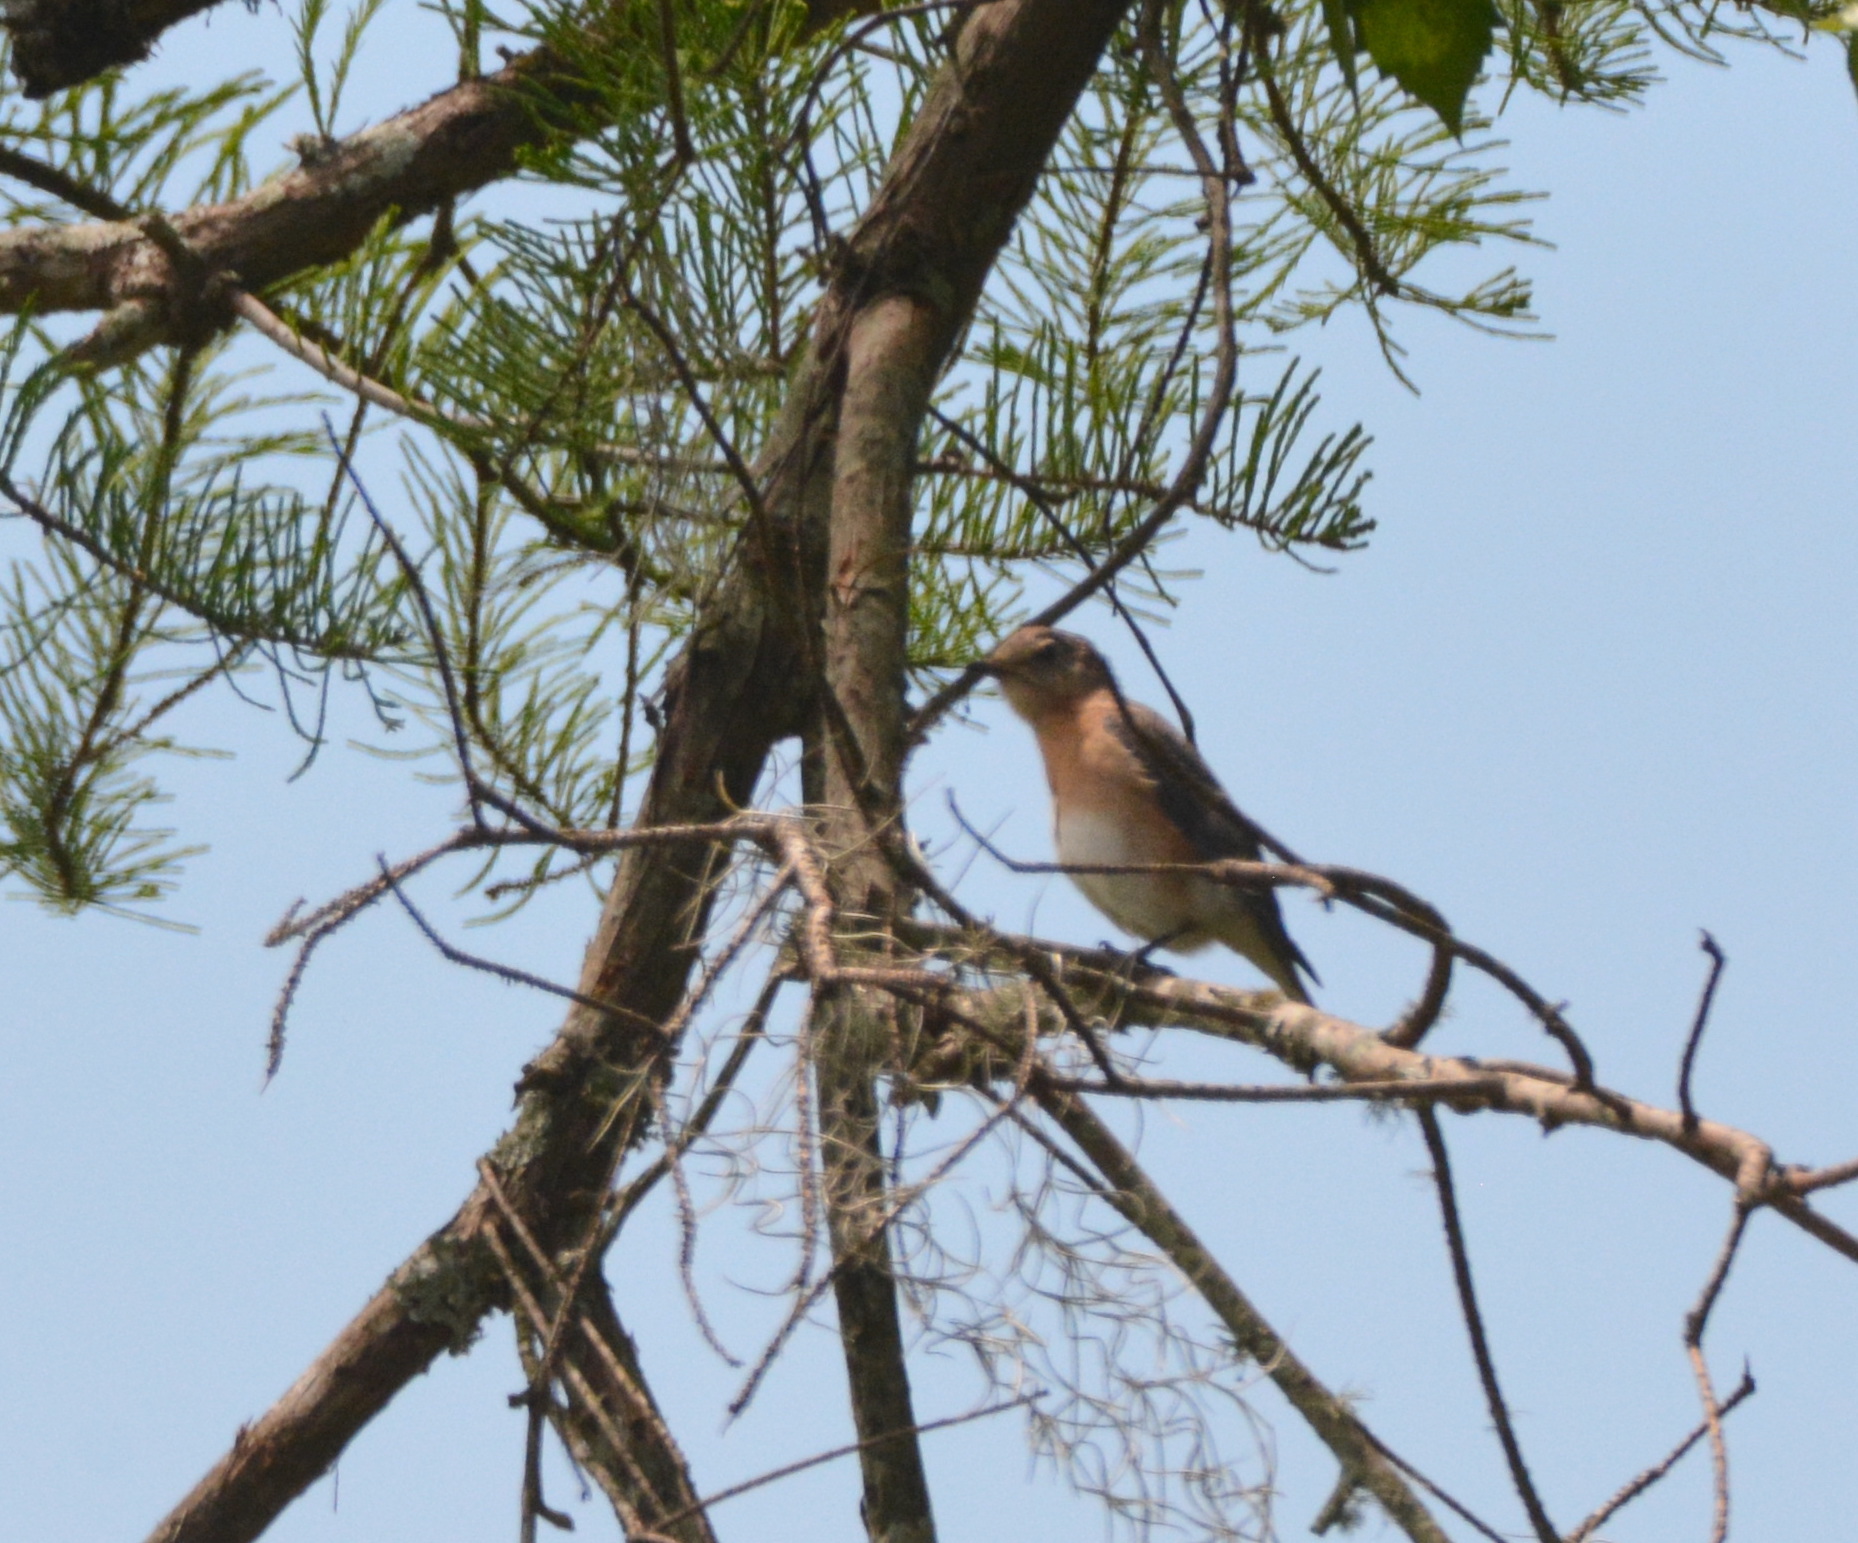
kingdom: Animalia
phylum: Chordata
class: Aves
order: Passeriformes
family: Turdidae
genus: Sialia
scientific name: Sialia sialis
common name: Eastern bluebird
